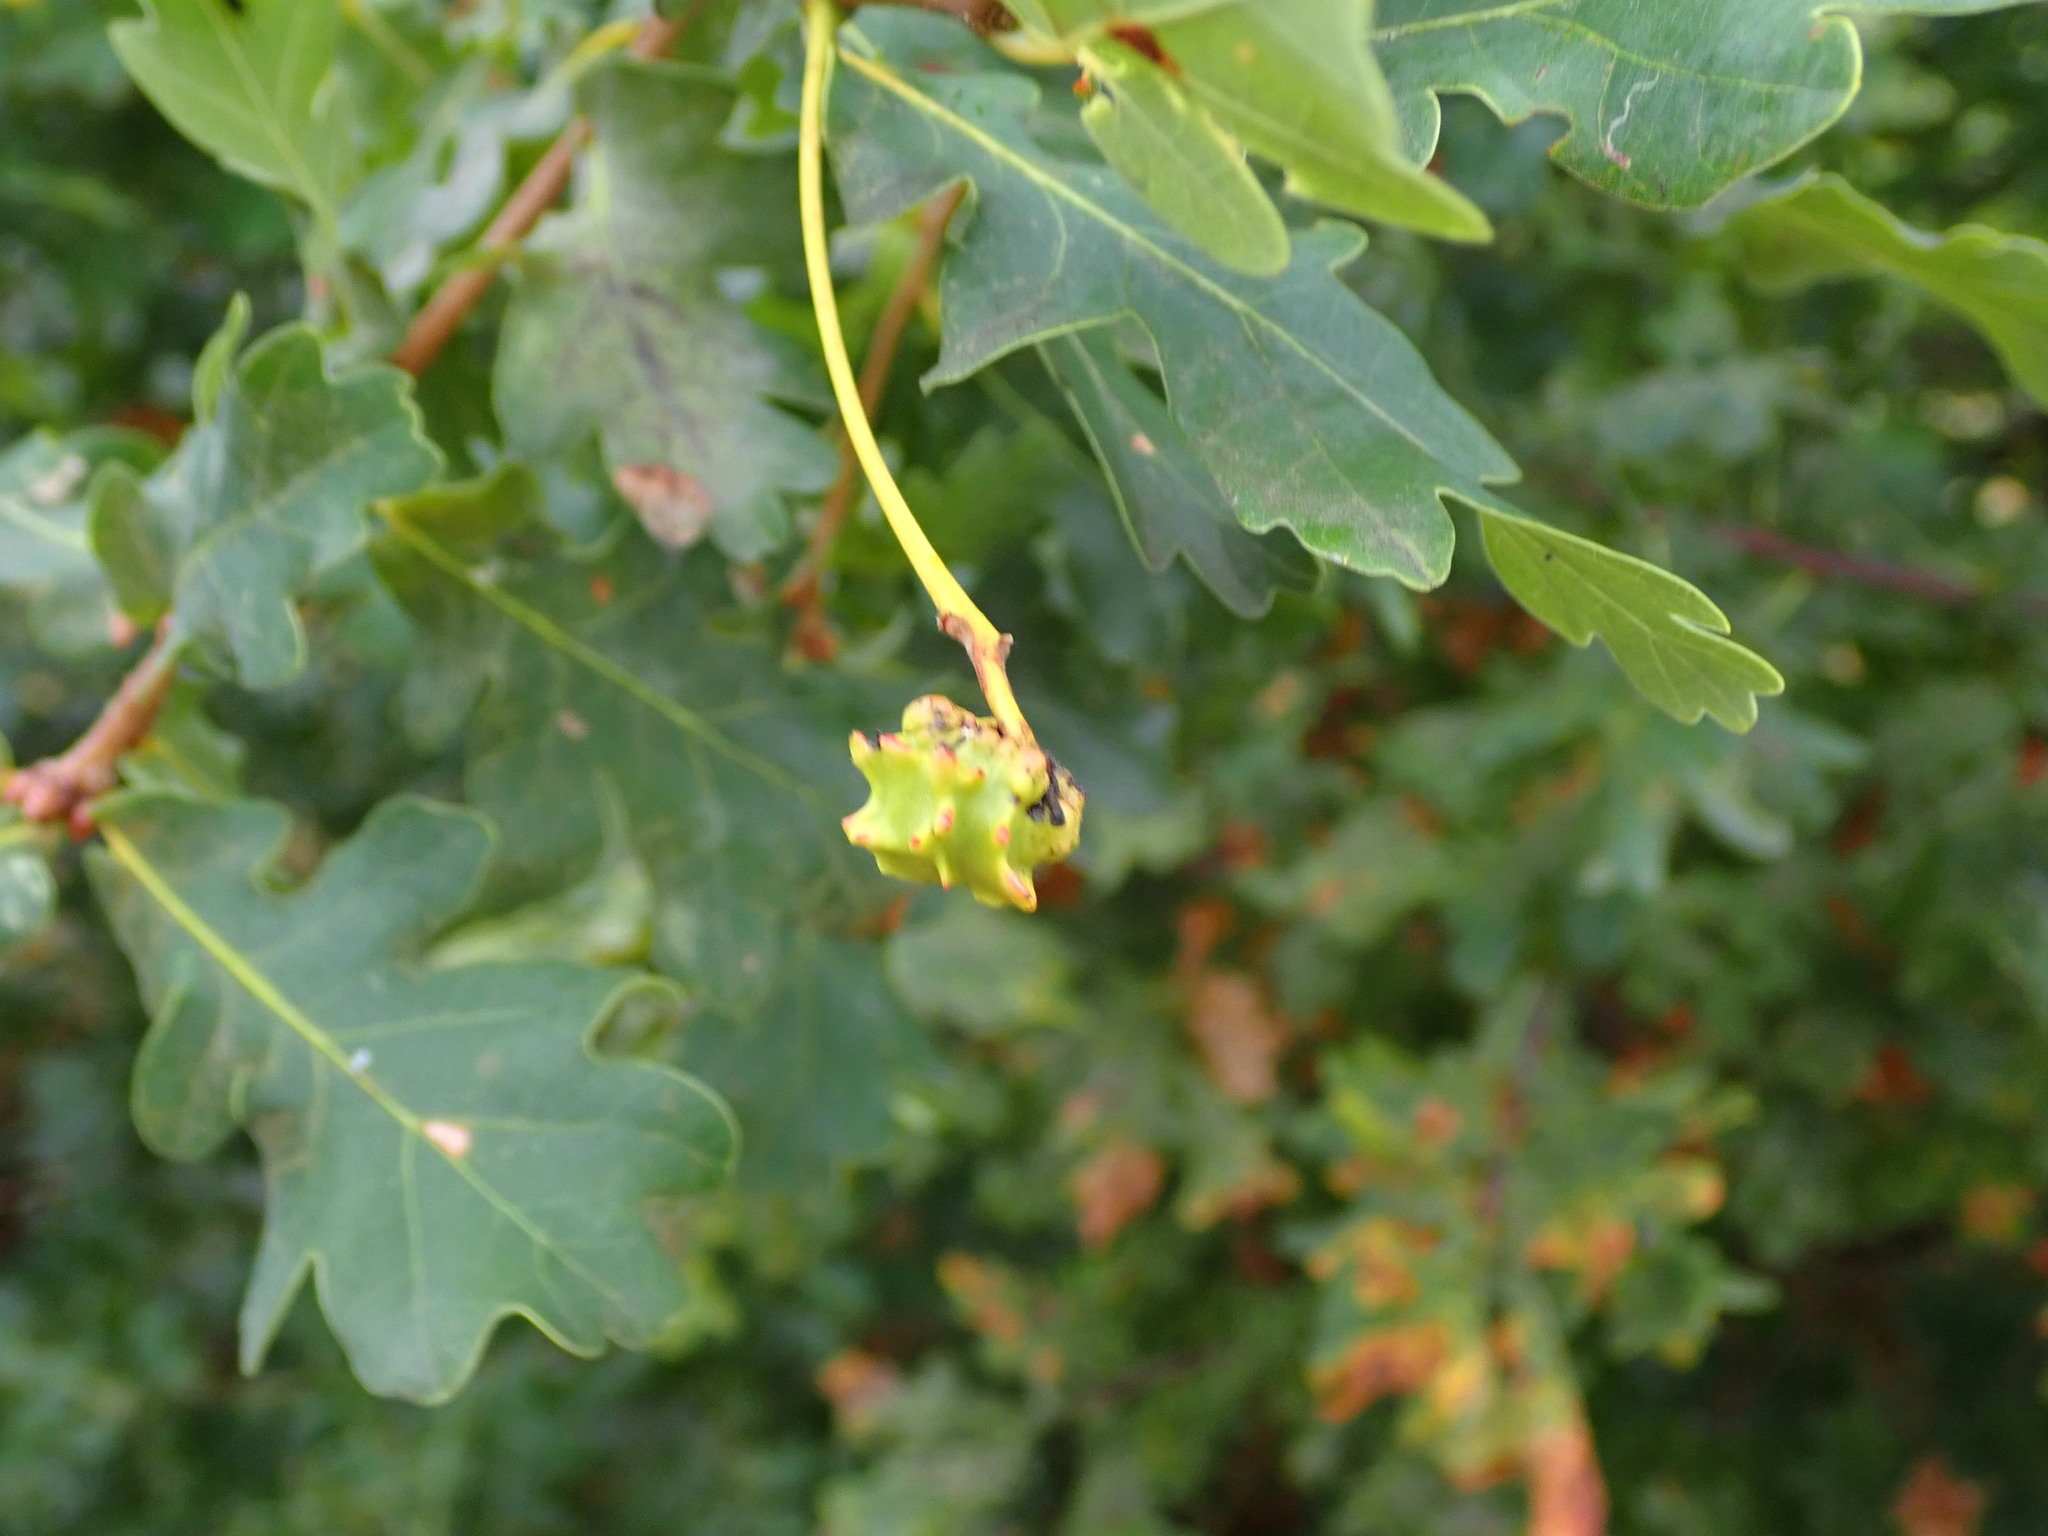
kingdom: Animalia
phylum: Arthropoda
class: Insecta
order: Hymenoptera
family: Cynipidae
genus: Andricus
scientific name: Andricus quercuscalicis
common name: Knopper gall
